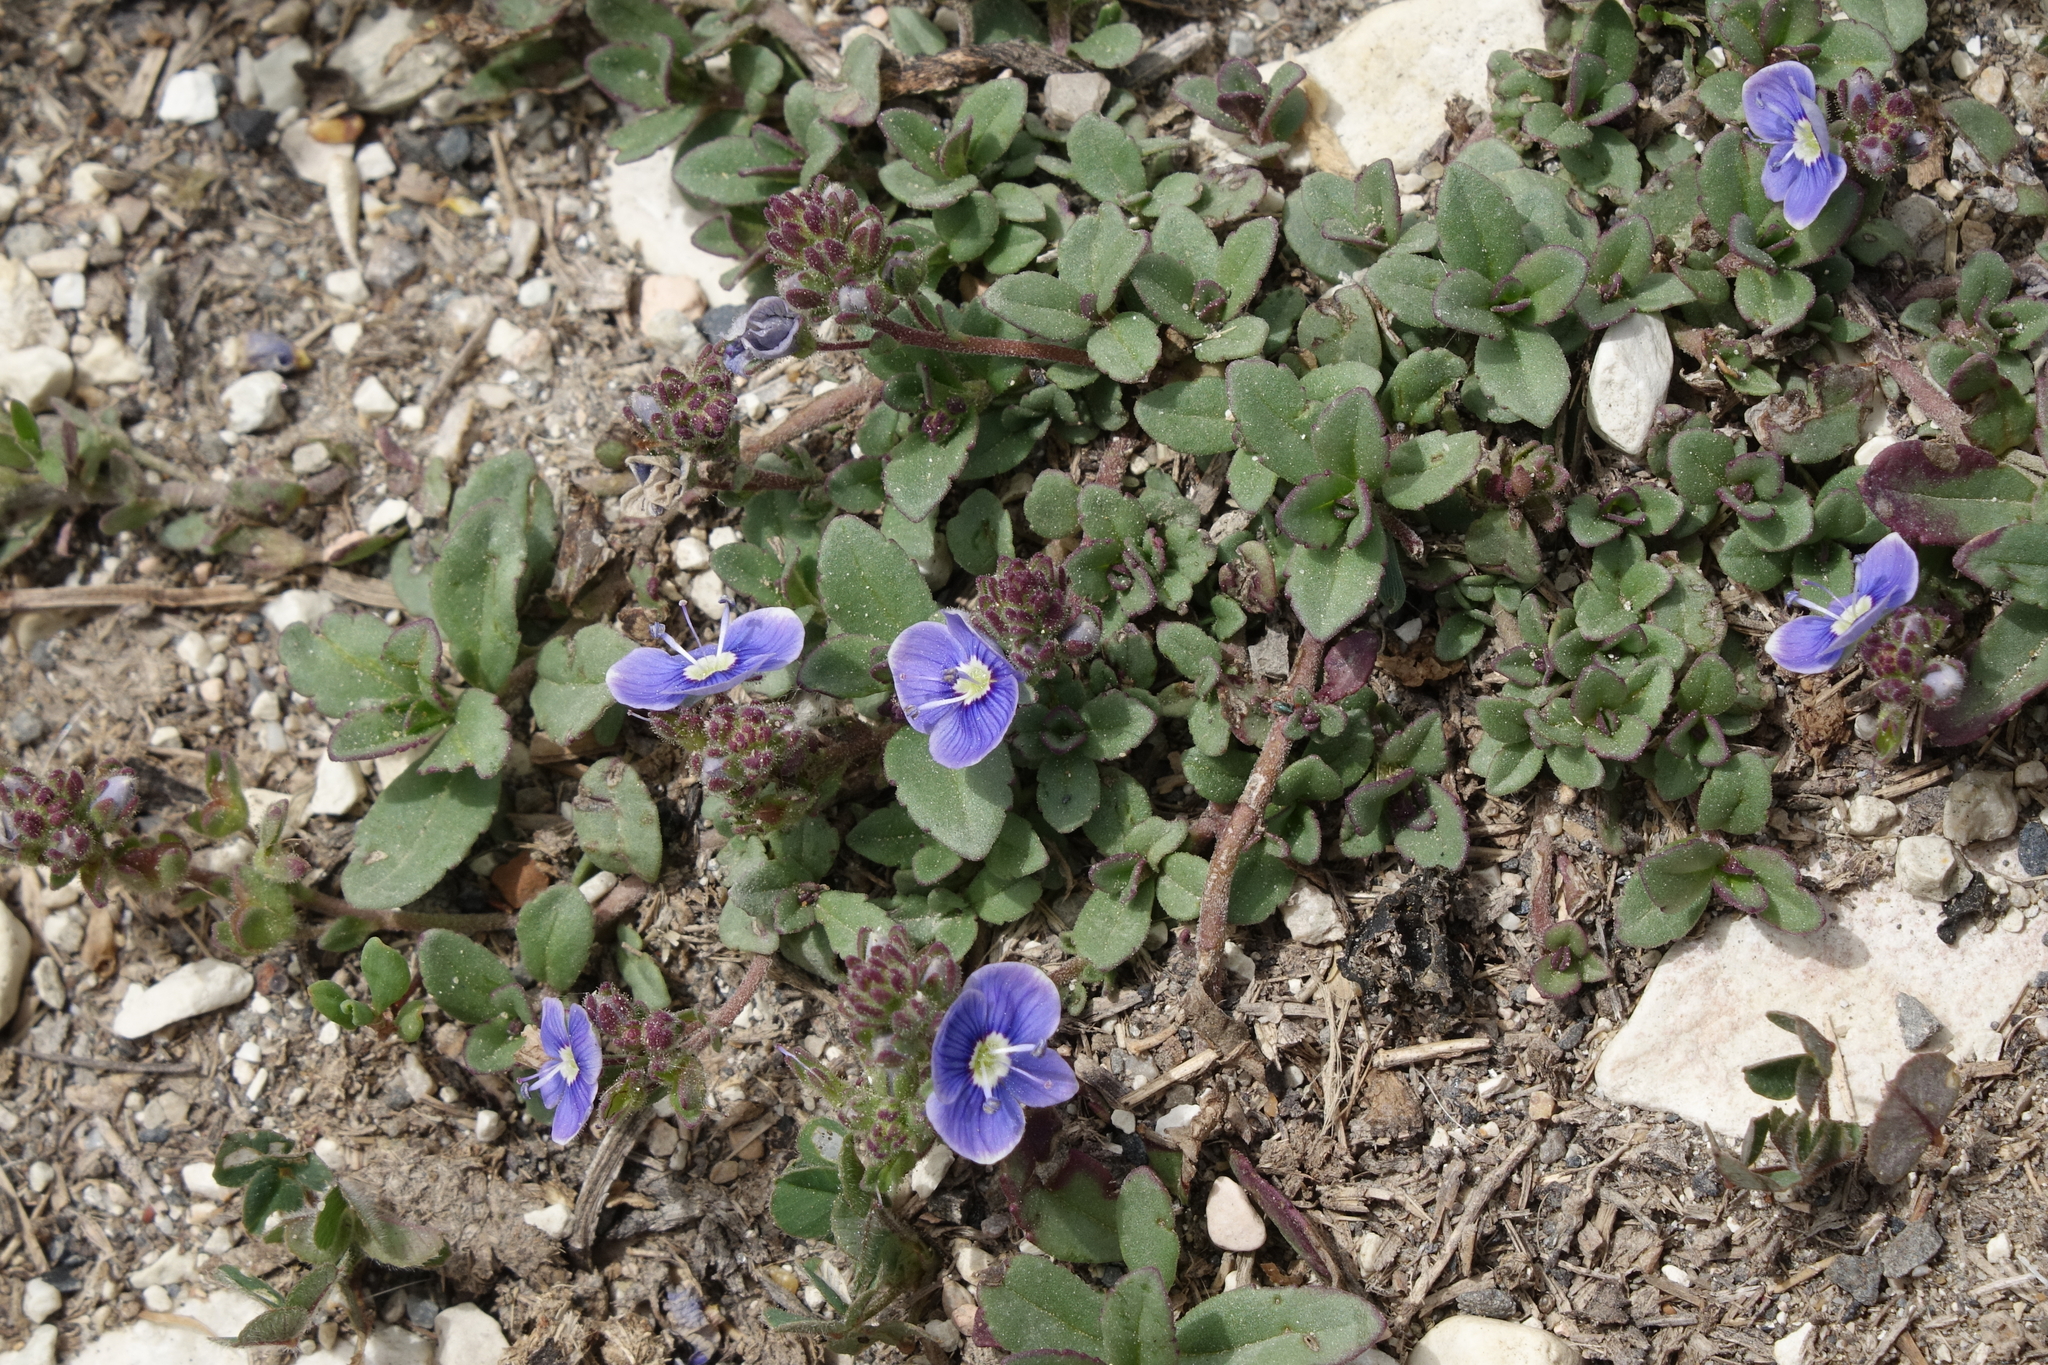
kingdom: Plantae
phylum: Tracheophyta
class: Magnoliopsida
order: Lamiales
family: Plantaginaceae
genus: Veronica
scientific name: Veronica vendettadeae
